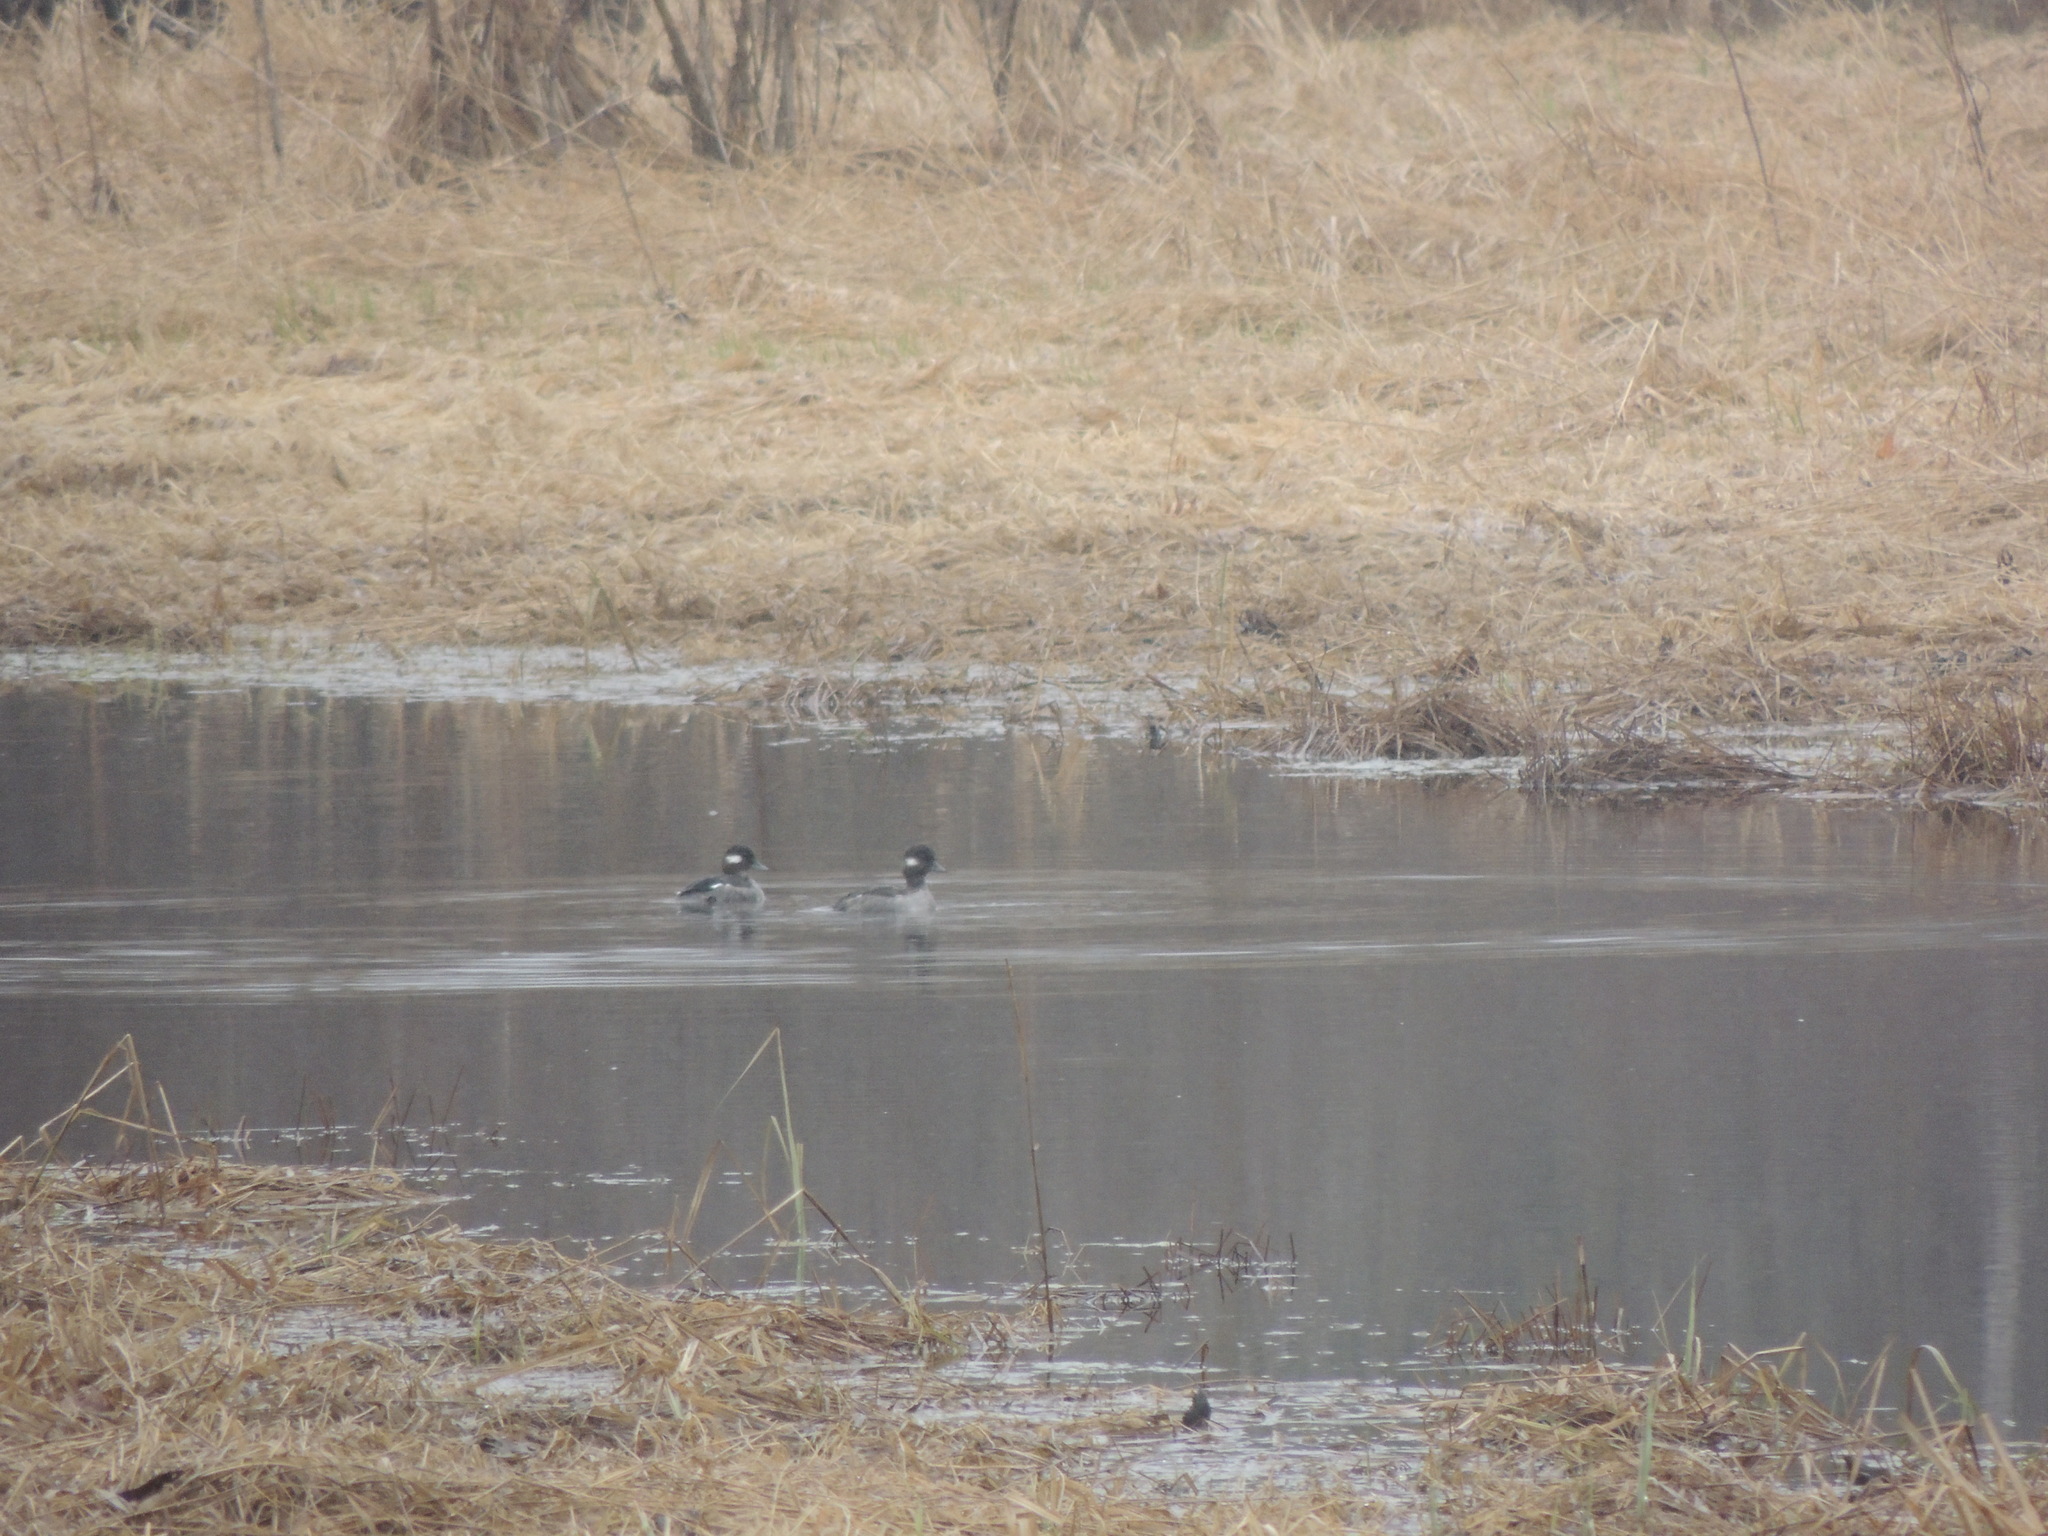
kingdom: Animalia
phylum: Chordata
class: Aves
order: Anseriformes
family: Anatidae
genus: Bucephala
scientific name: Bucephala albeola
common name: Bufflehead
